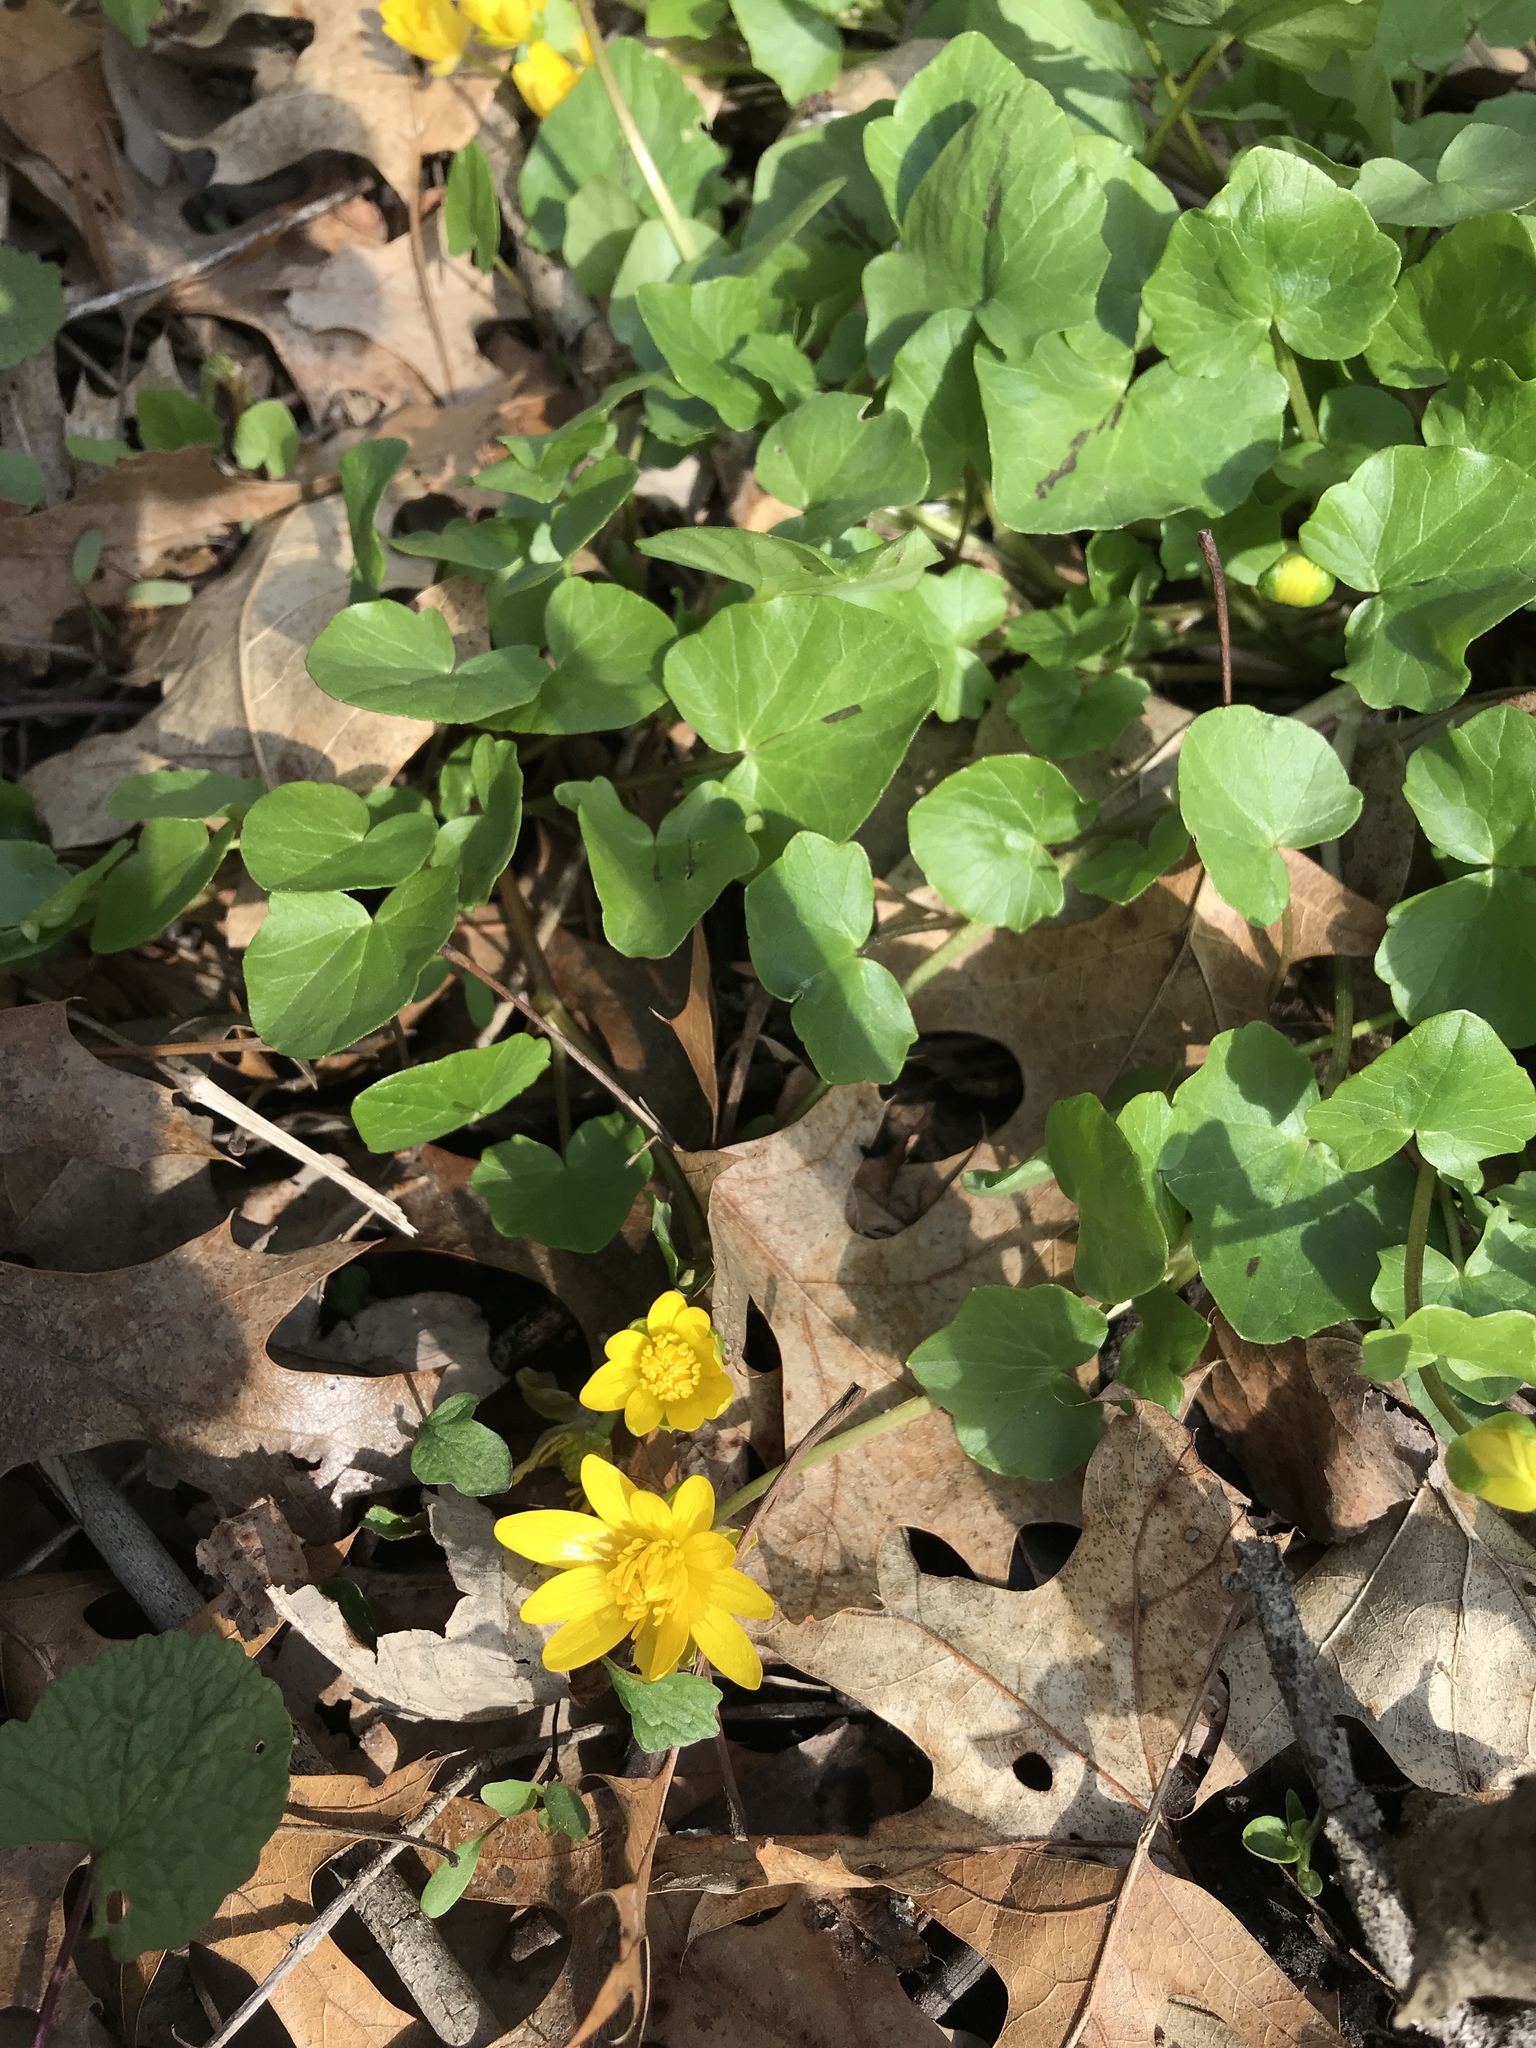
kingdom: Plantae
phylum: Tracheophyta
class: Magnoliopsida
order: Ranunculales
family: Ranunculaceae
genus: Ficaria
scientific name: Ficaria verna
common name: Lesser celandine
